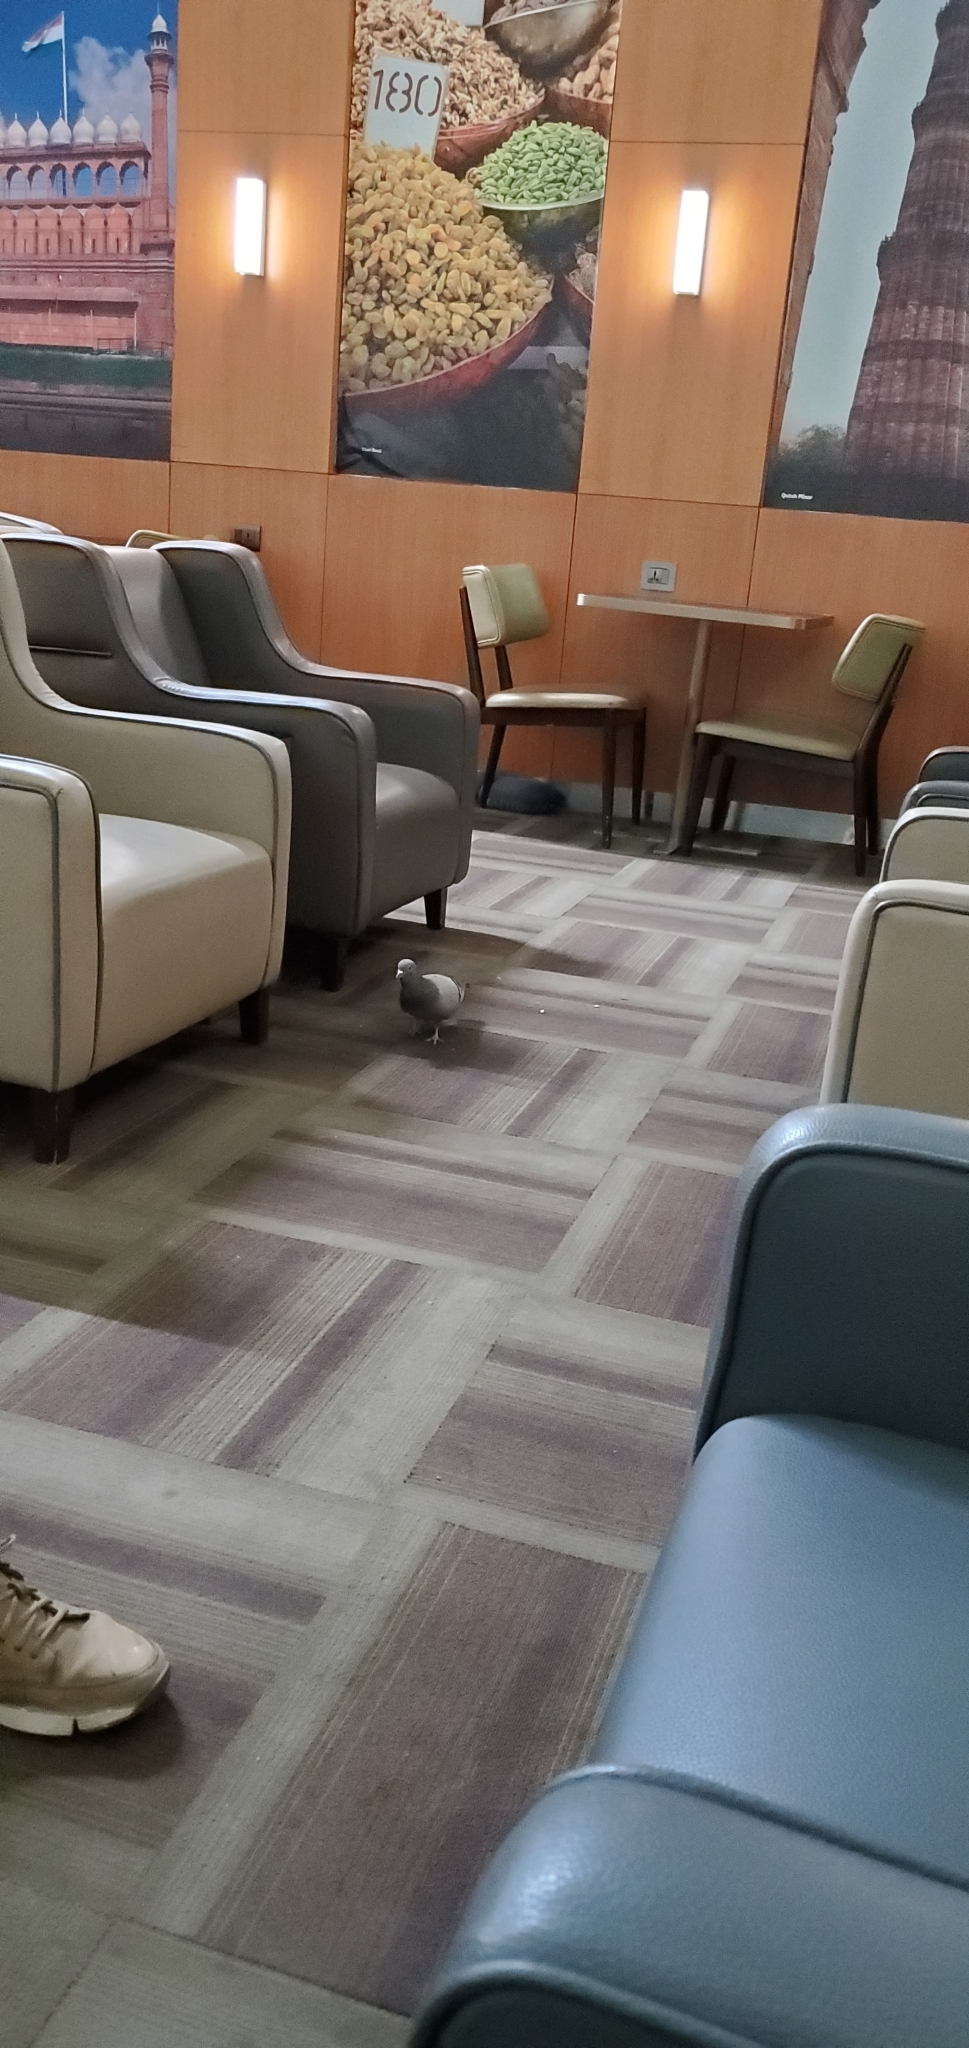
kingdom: Animalia
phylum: Chordata
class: Aves
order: Columbiformes
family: Columbidae
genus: Columba
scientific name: Columba livia
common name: Rock pigeon
